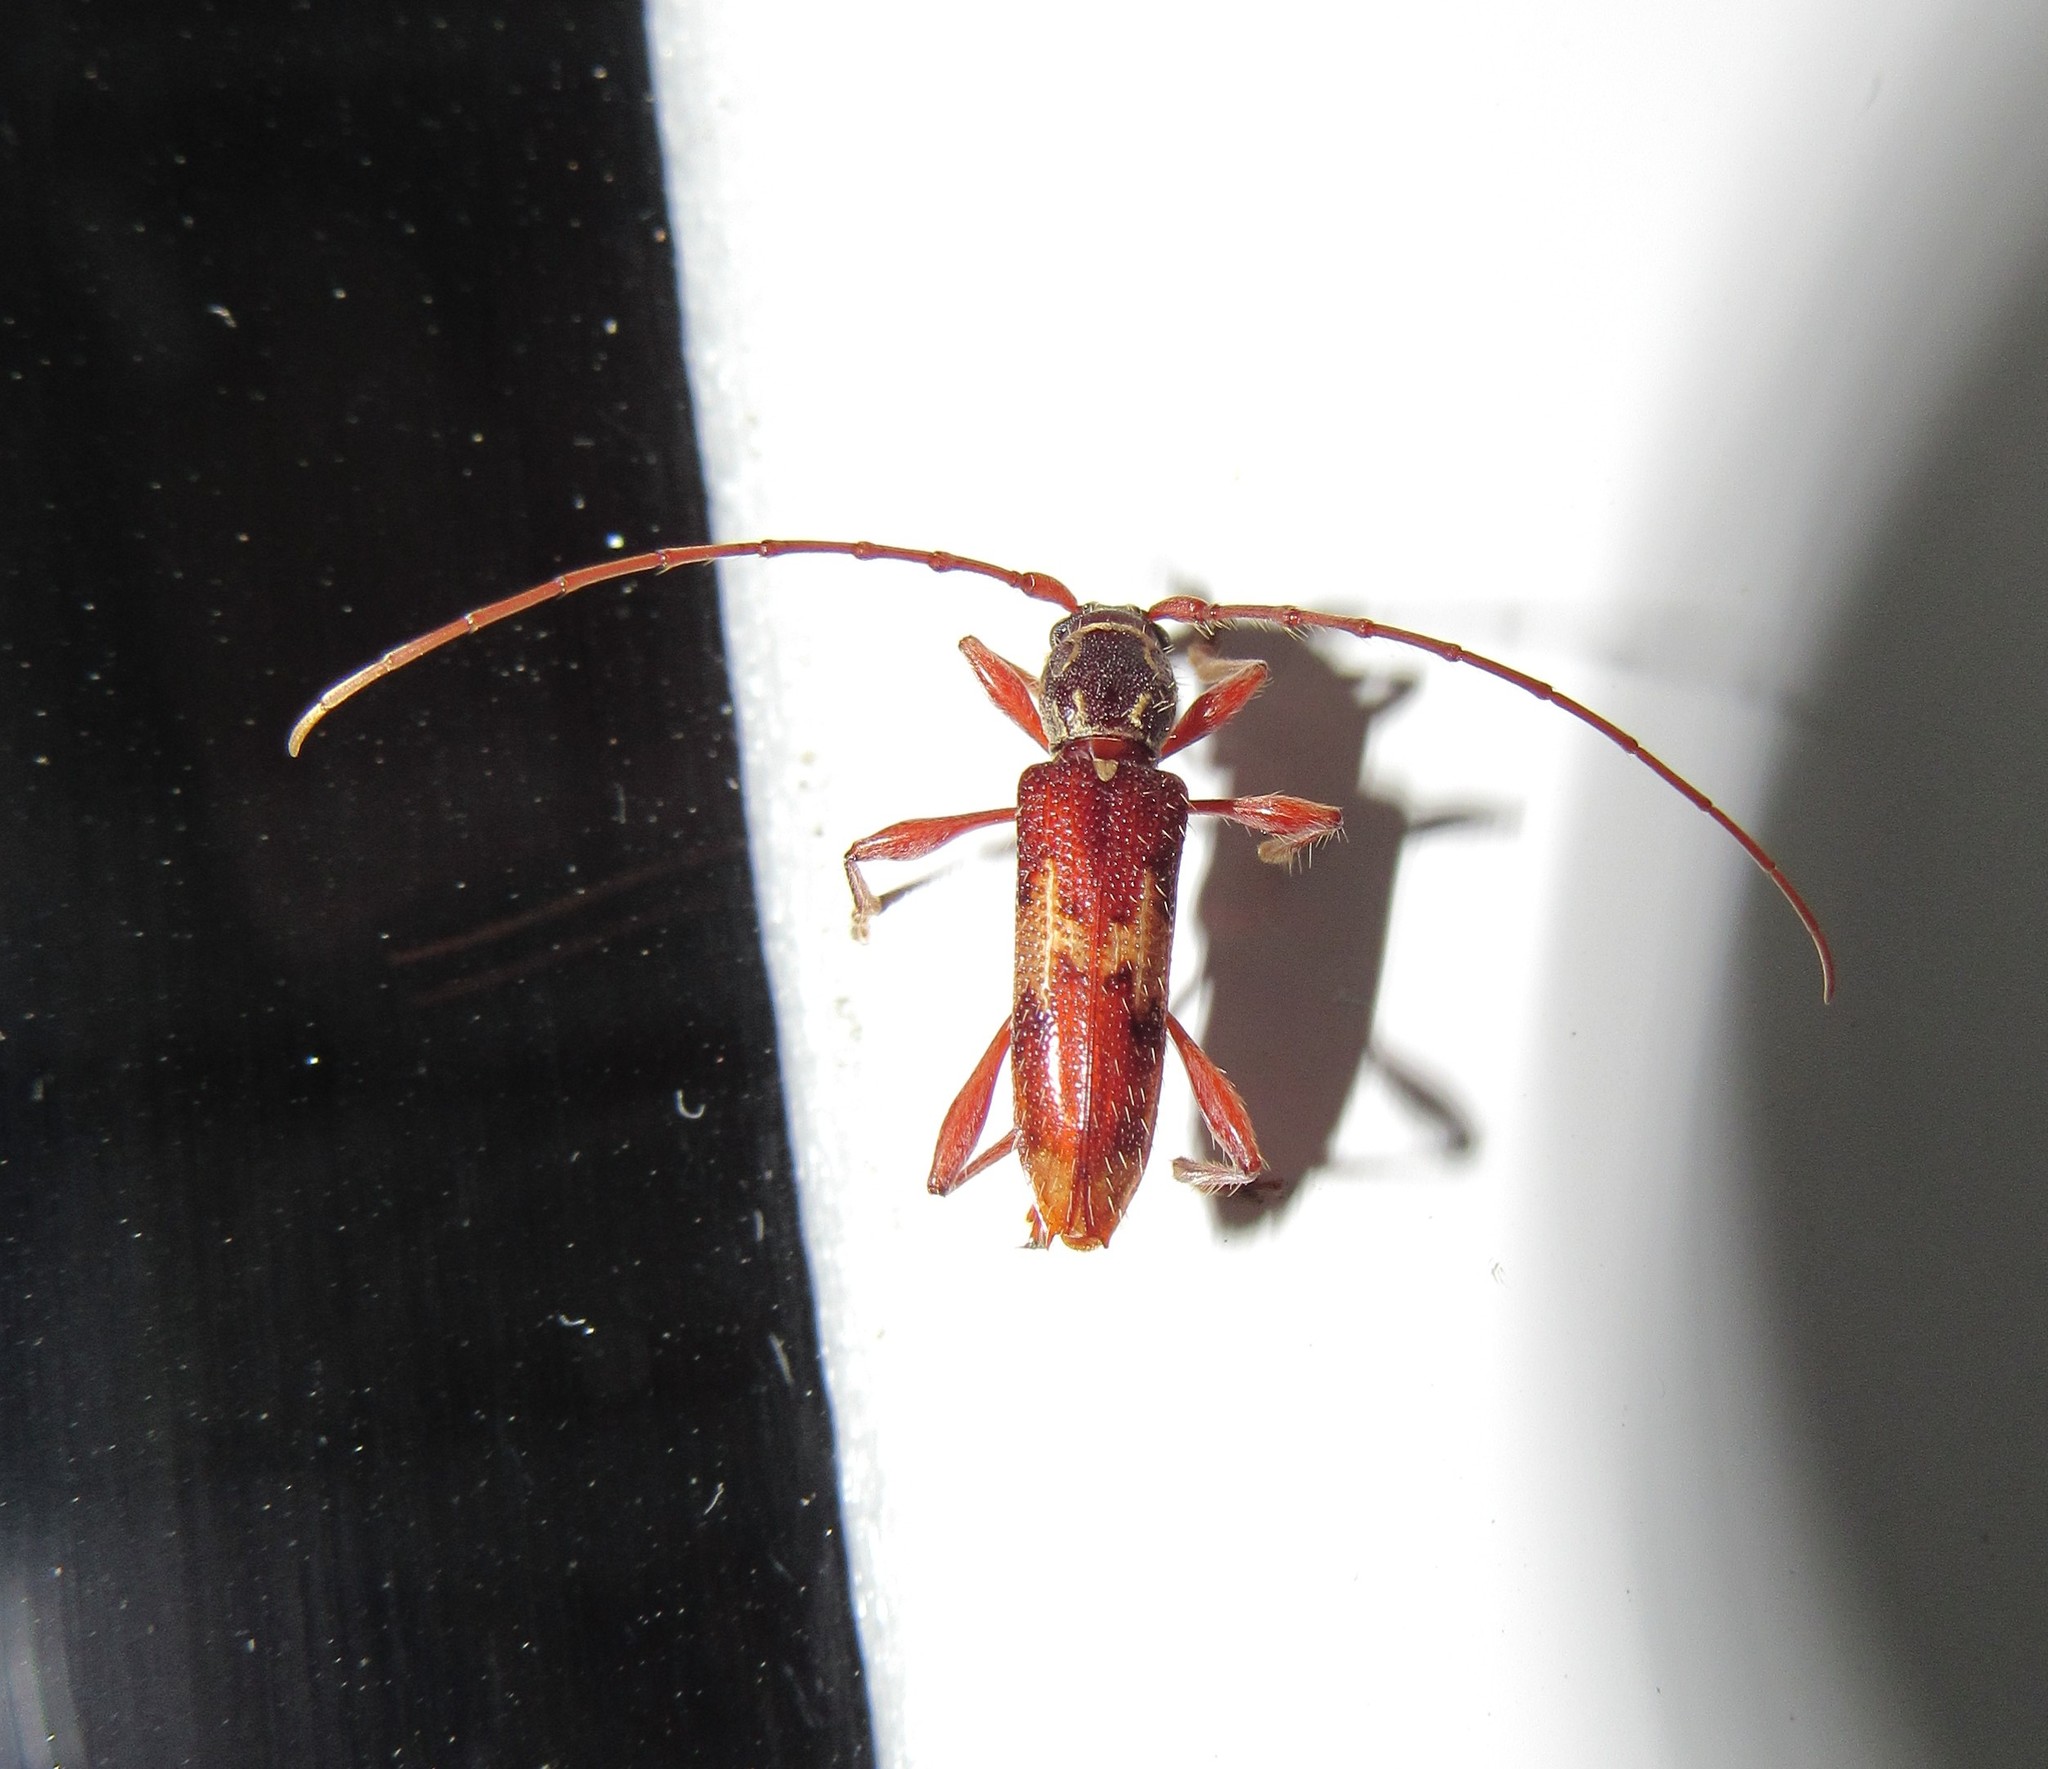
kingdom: Animalia
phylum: Arthropoda
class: Insecta
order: Coleoptera
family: Cerambycidae
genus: Eurysthea
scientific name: Eurysthea hirta
